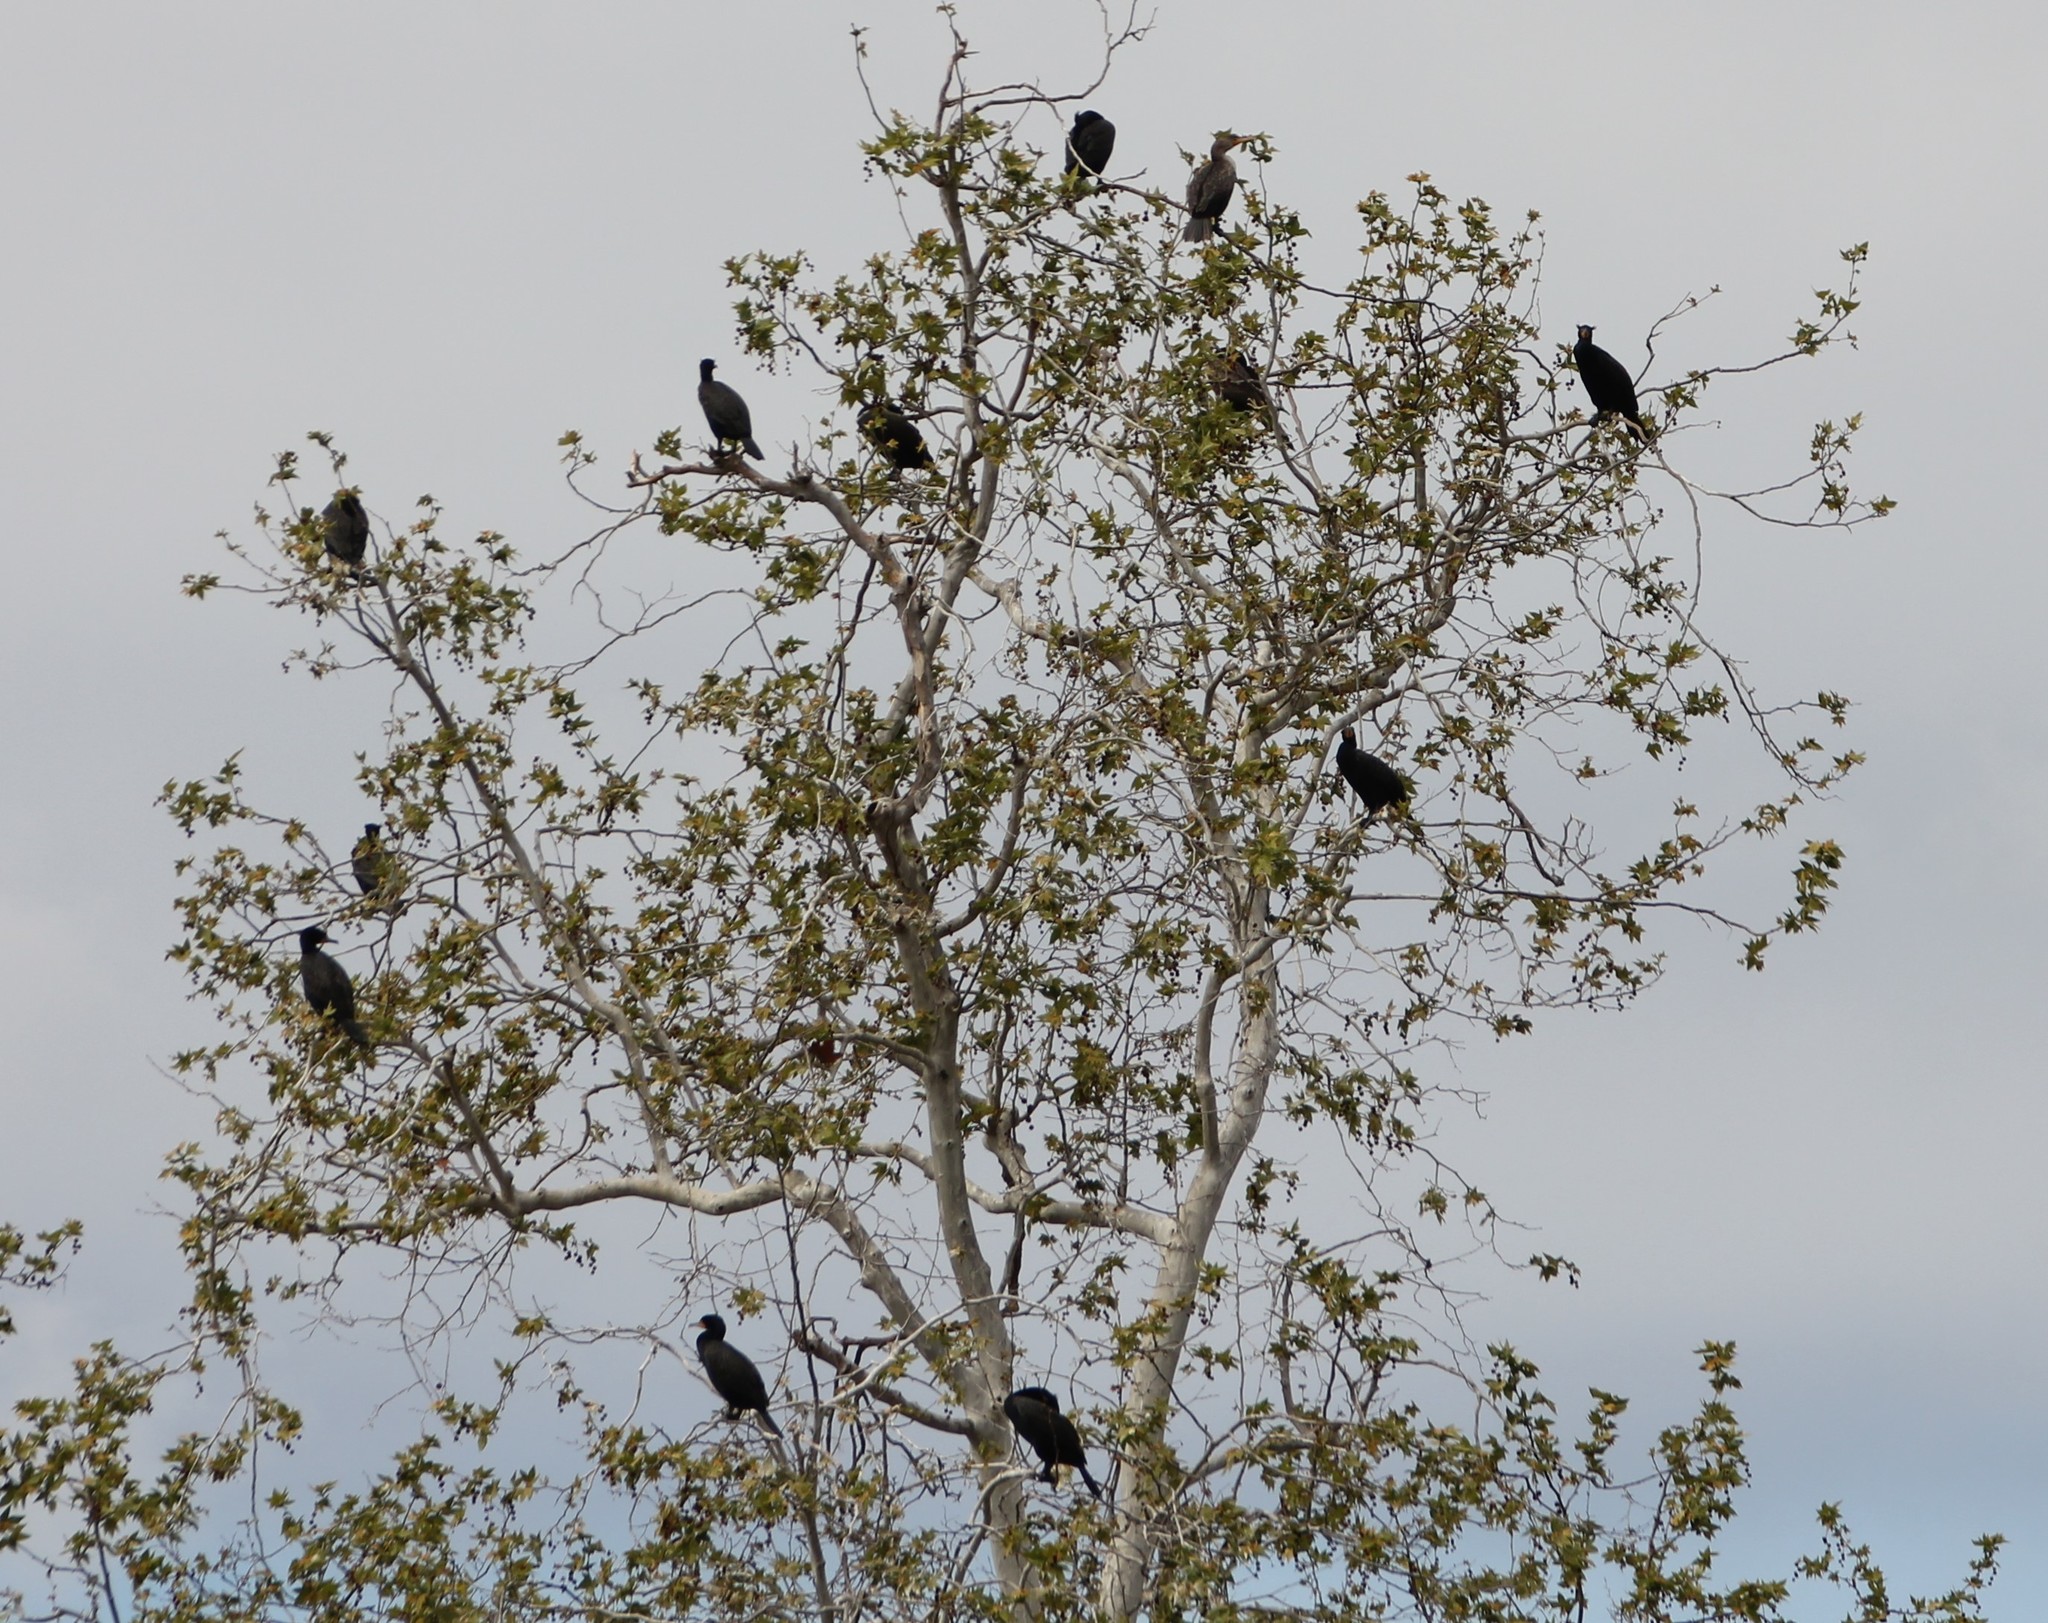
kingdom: Animalia
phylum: Chordata
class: Aves
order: Suliformes
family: Phalacrocoracidae
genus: Phalacrocorax
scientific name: Phalacrocorax auritus
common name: Double-crested cormorant
